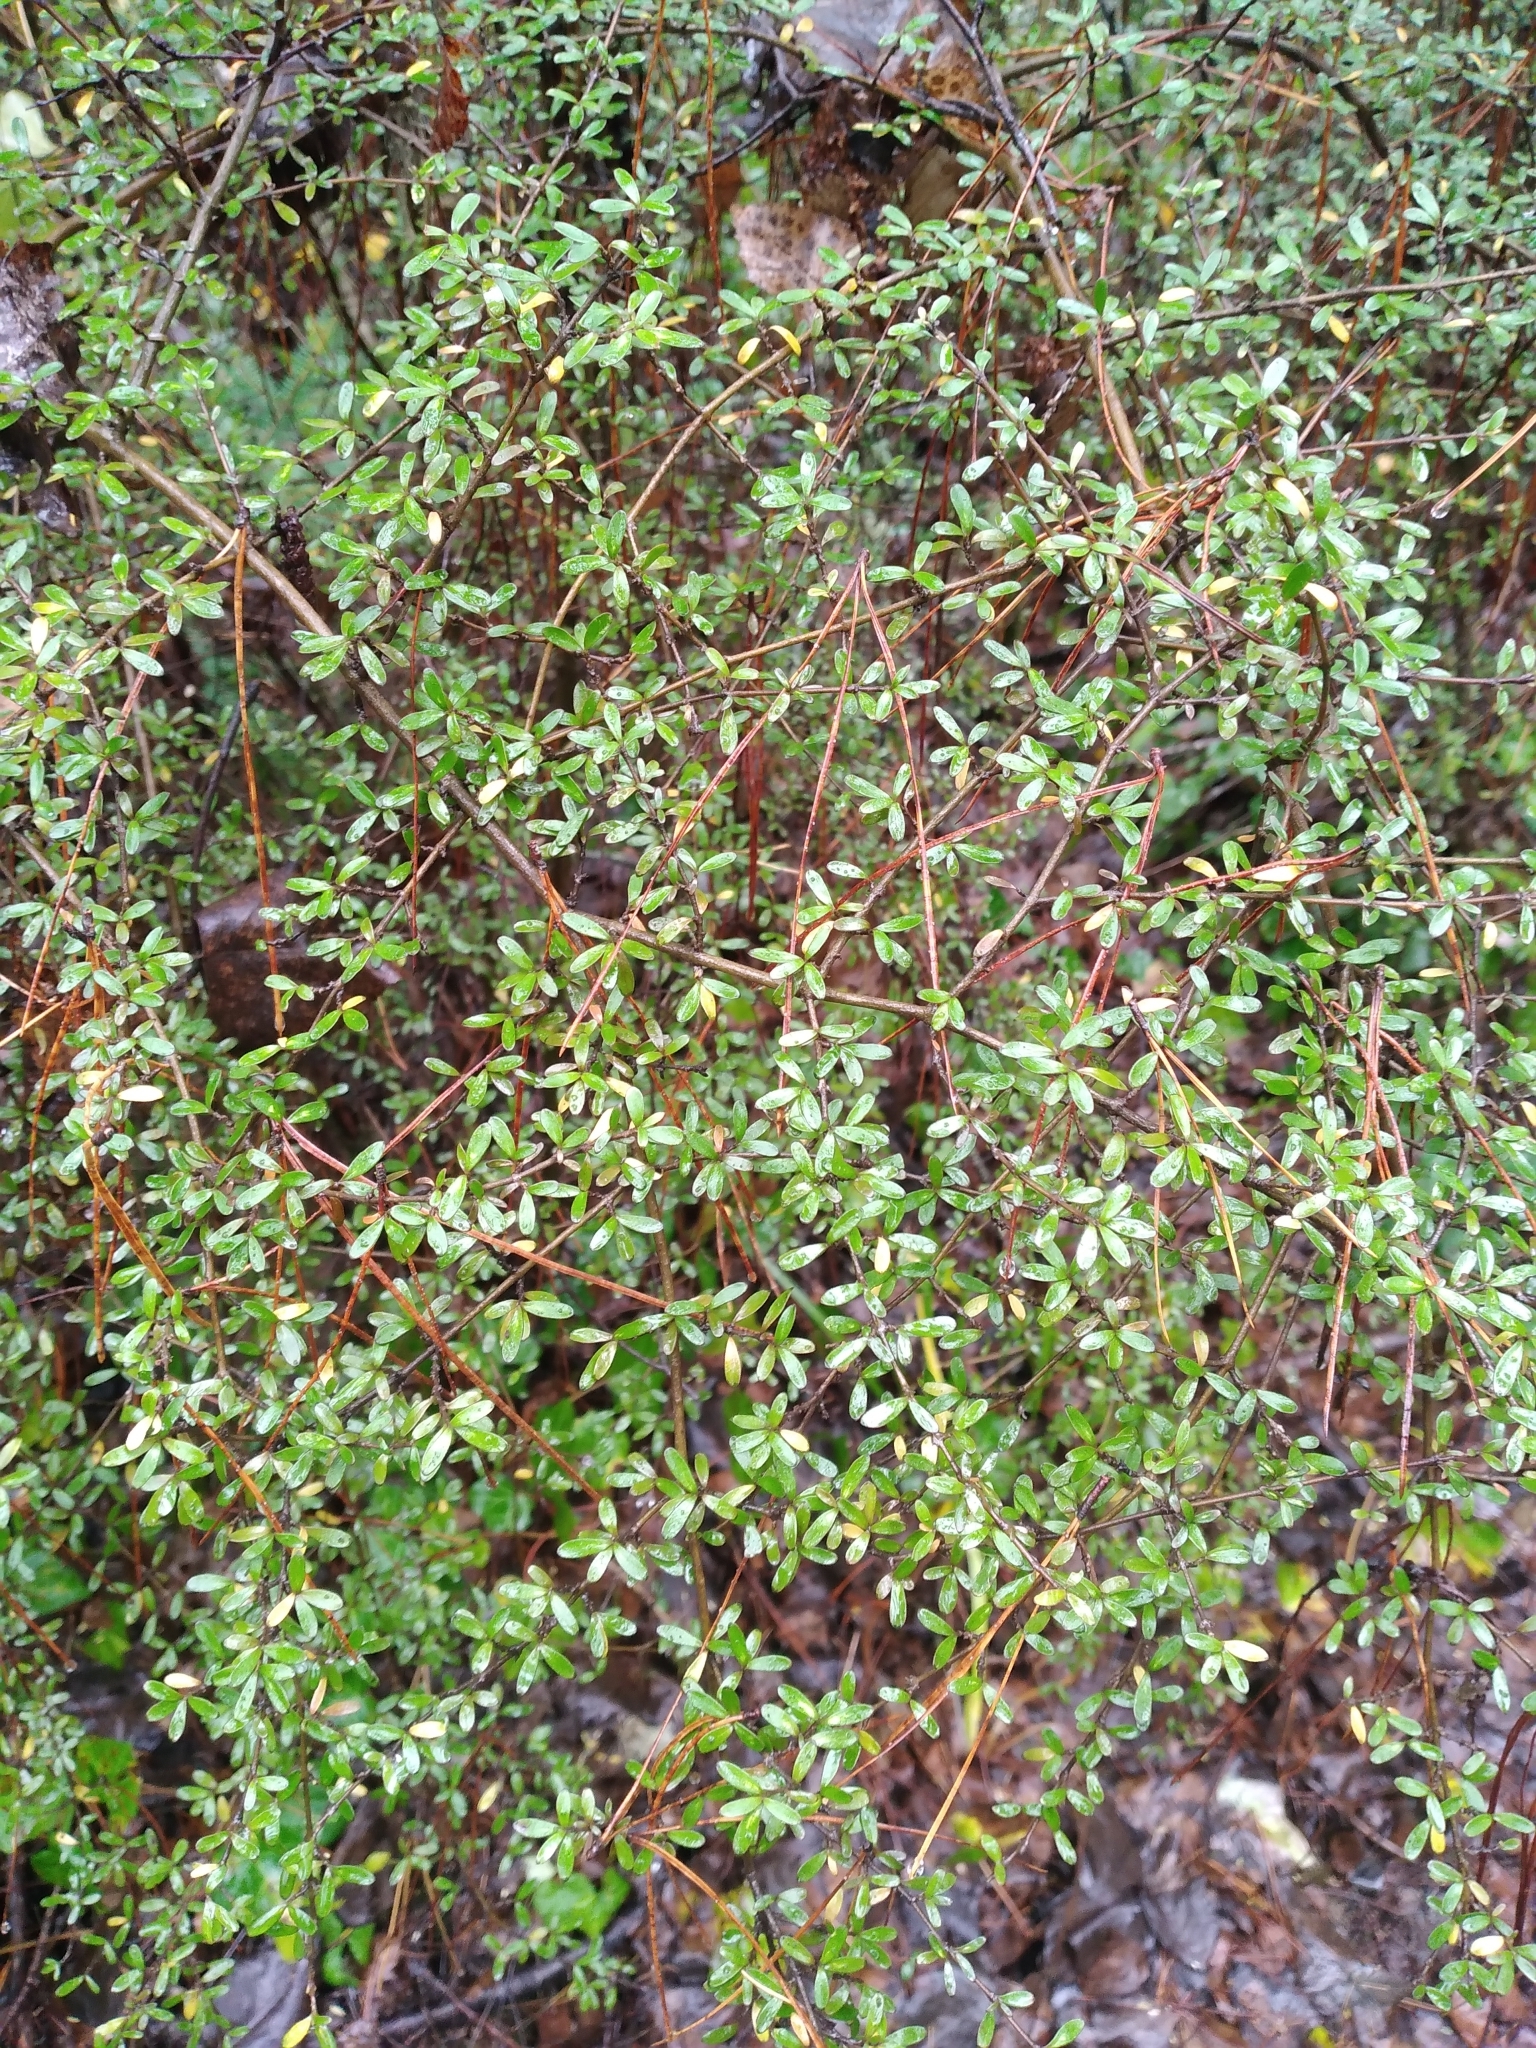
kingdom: Plantae
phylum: Tracheophyta
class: Magnoliopsida
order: Gentianales
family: Rubiaceae
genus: Coprosma
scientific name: Coprosma propinqua
